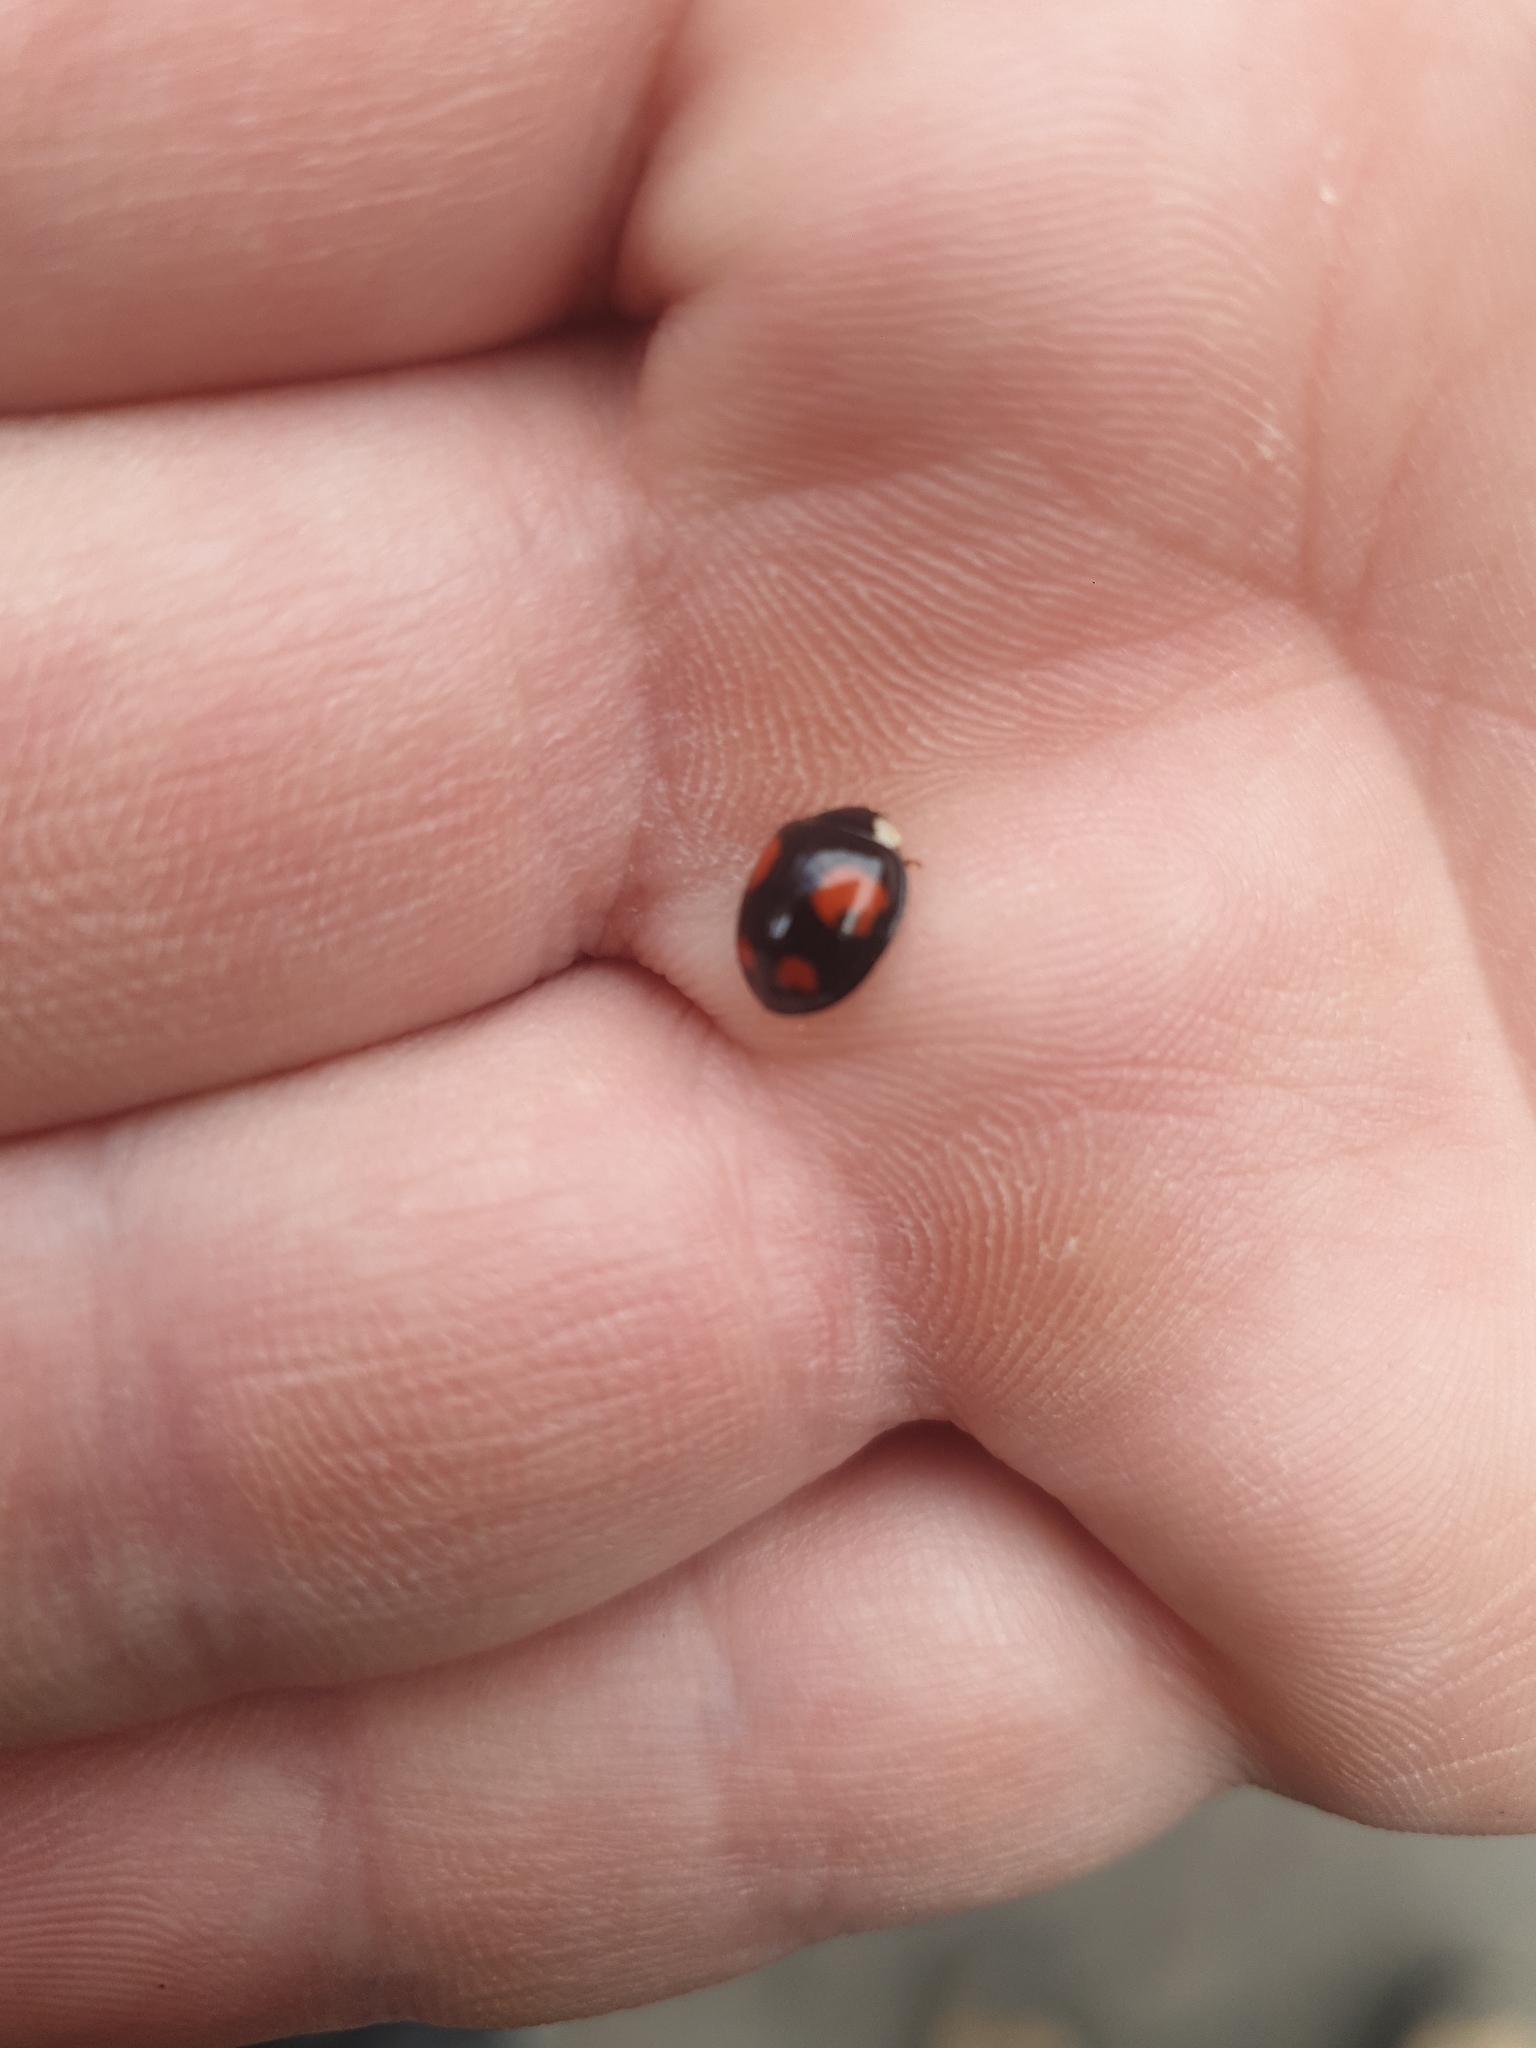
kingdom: Animalia
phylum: Arthropoda
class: Insecta
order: Coleoptera
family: Coccinellidae
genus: Harmonia
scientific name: Harmonia axyridis
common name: Harlequin ladybird
